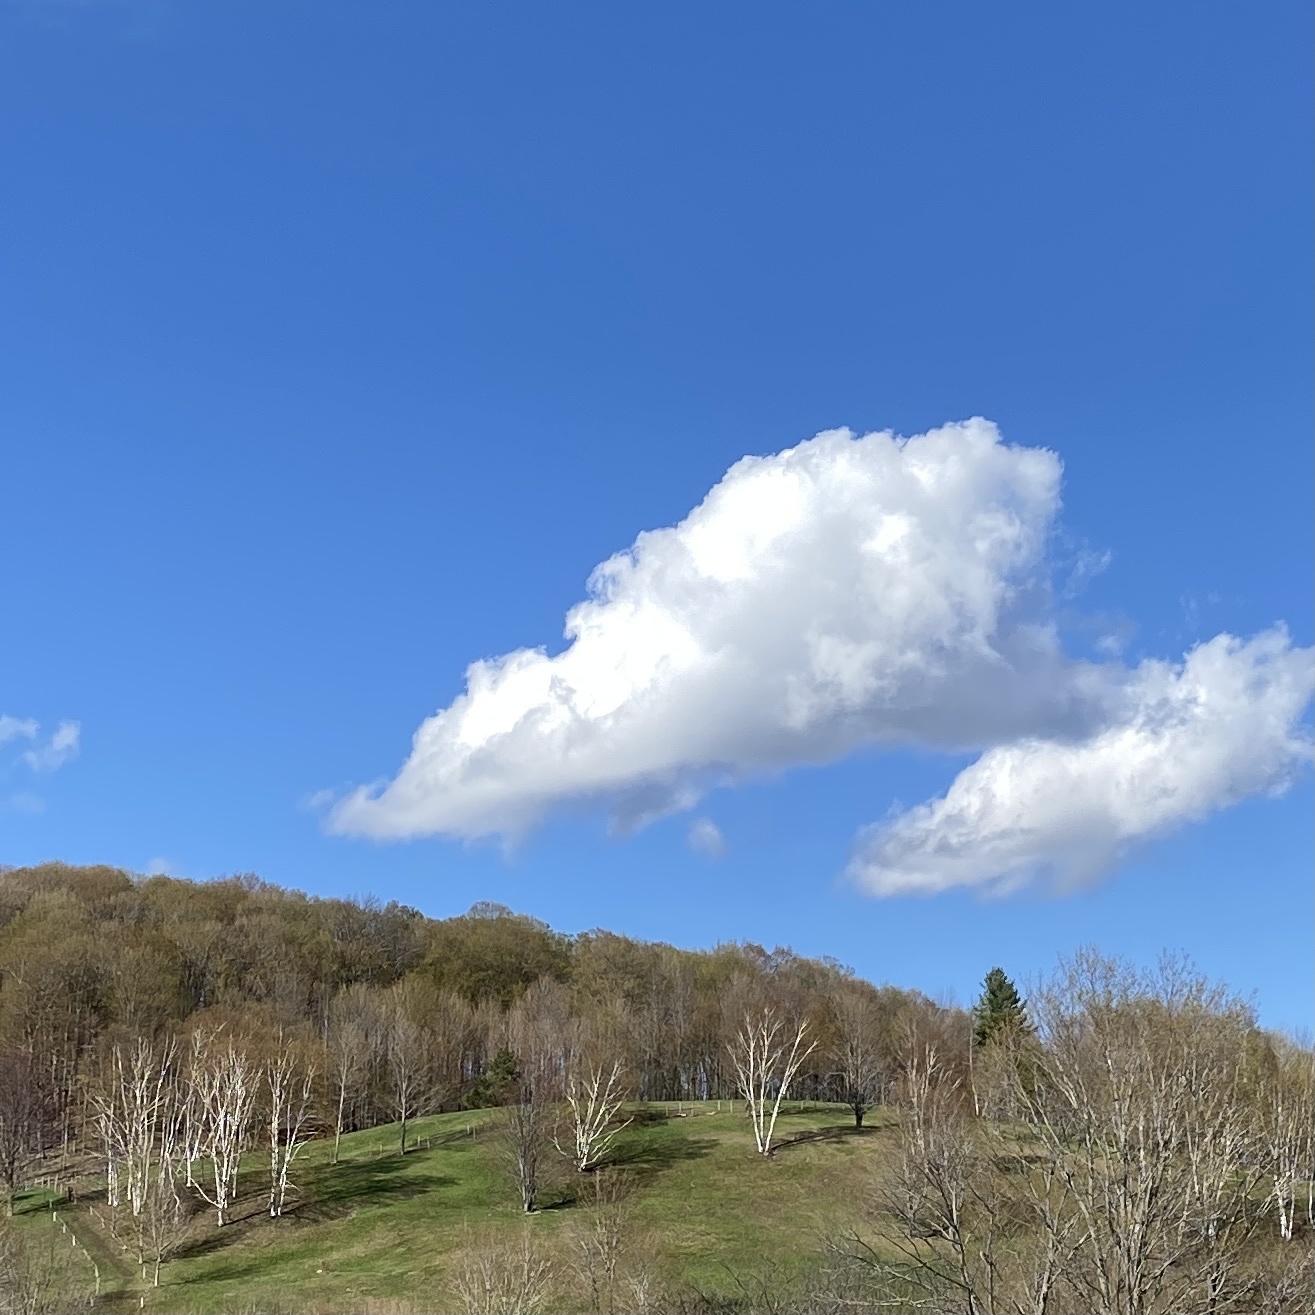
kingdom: Plantae
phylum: Tracheophyta
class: Magnoliopsida
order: Fagales
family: Betulaceae
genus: Betula
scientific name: Betula papyrifera
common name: Paper birch
